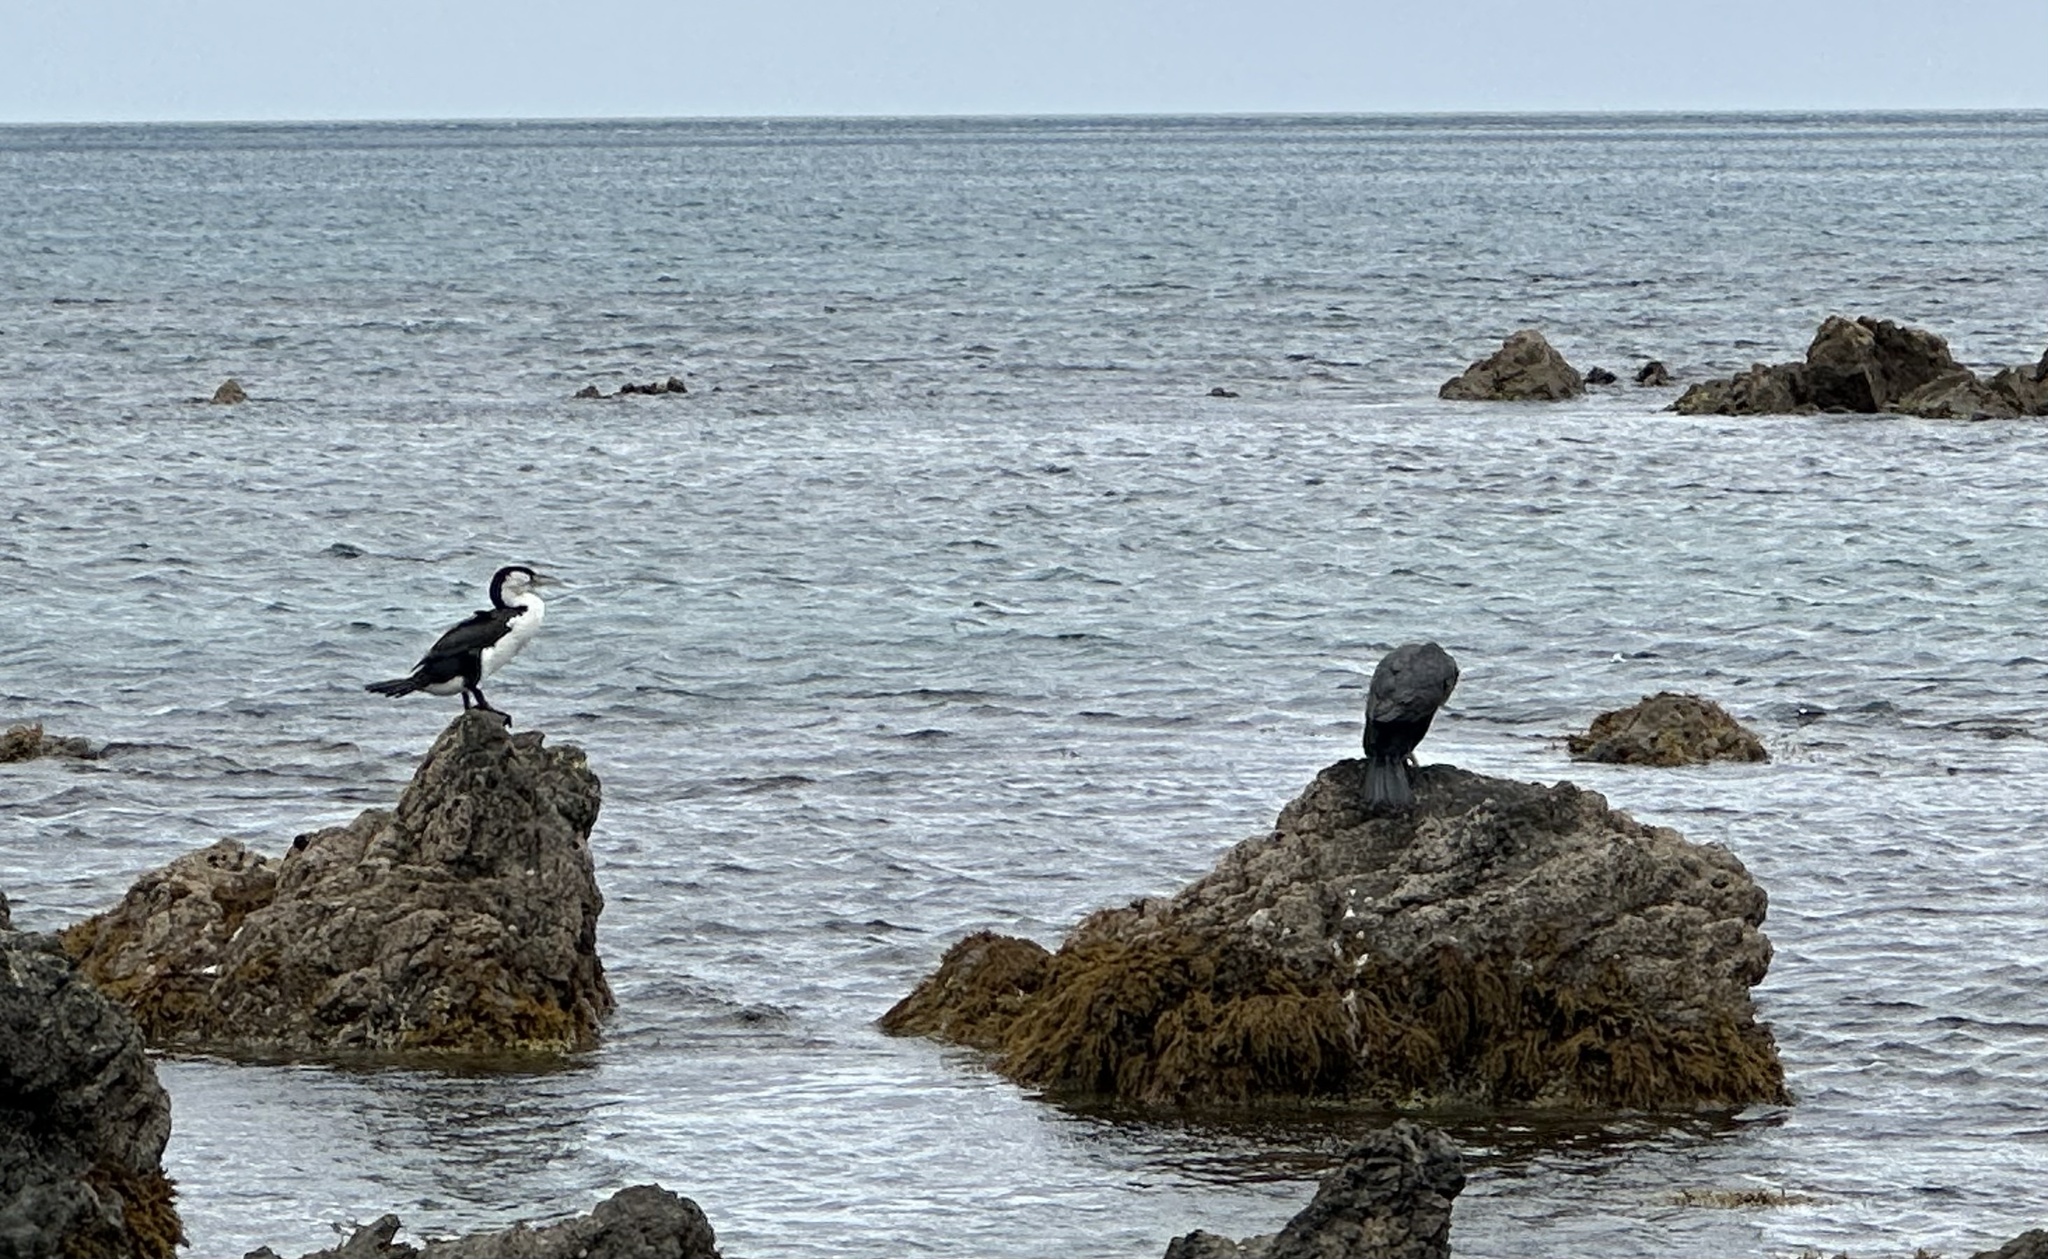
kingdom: Animalia
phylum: Chordata
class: Aves
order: Suliformes
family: Phalacrocoracidae
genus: Phalacrocorax
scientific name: Phalacrocorax varius
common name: Pied cormorant
